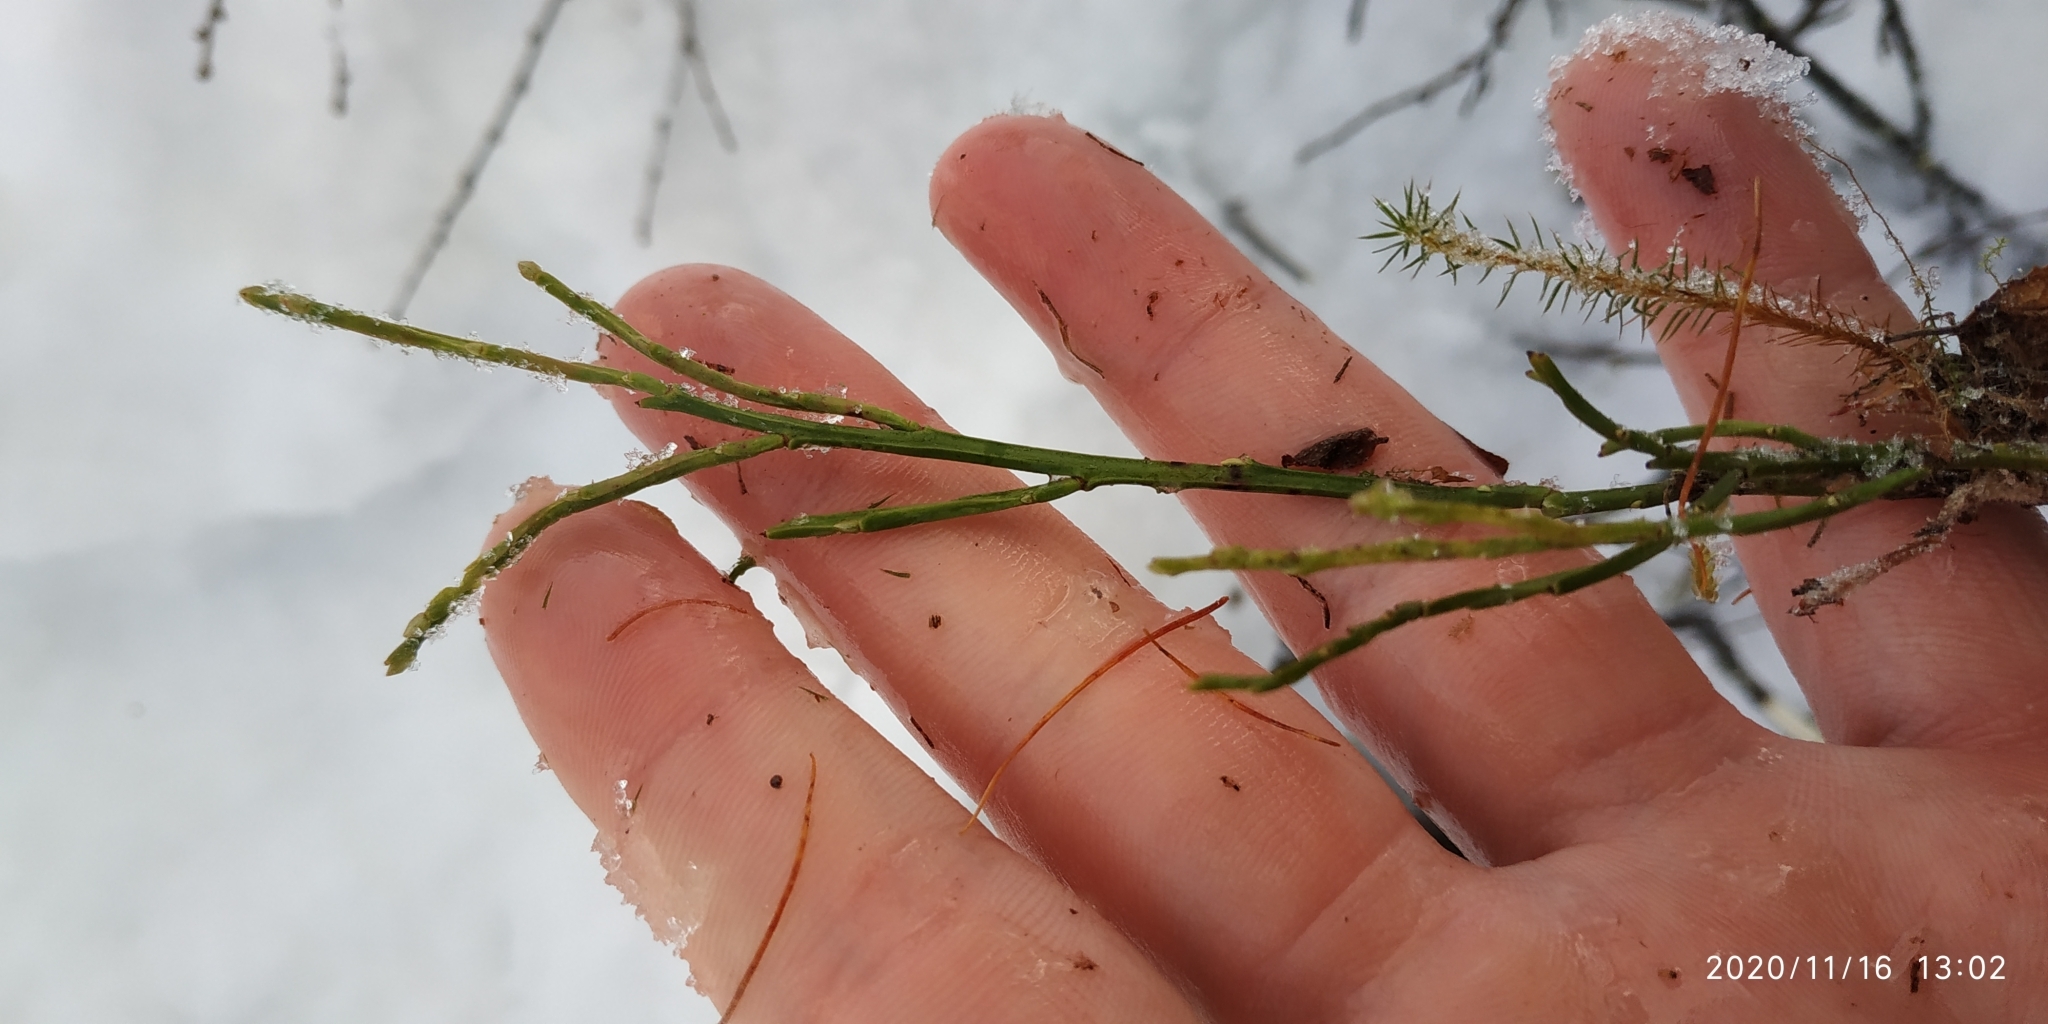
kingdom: Plantae
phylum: Tracheophyta
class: Magnoliopsida
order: Ericales
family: Ericaceae
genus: Vaccinium
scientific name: Vaccinium myrtillus
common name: Bilberry
